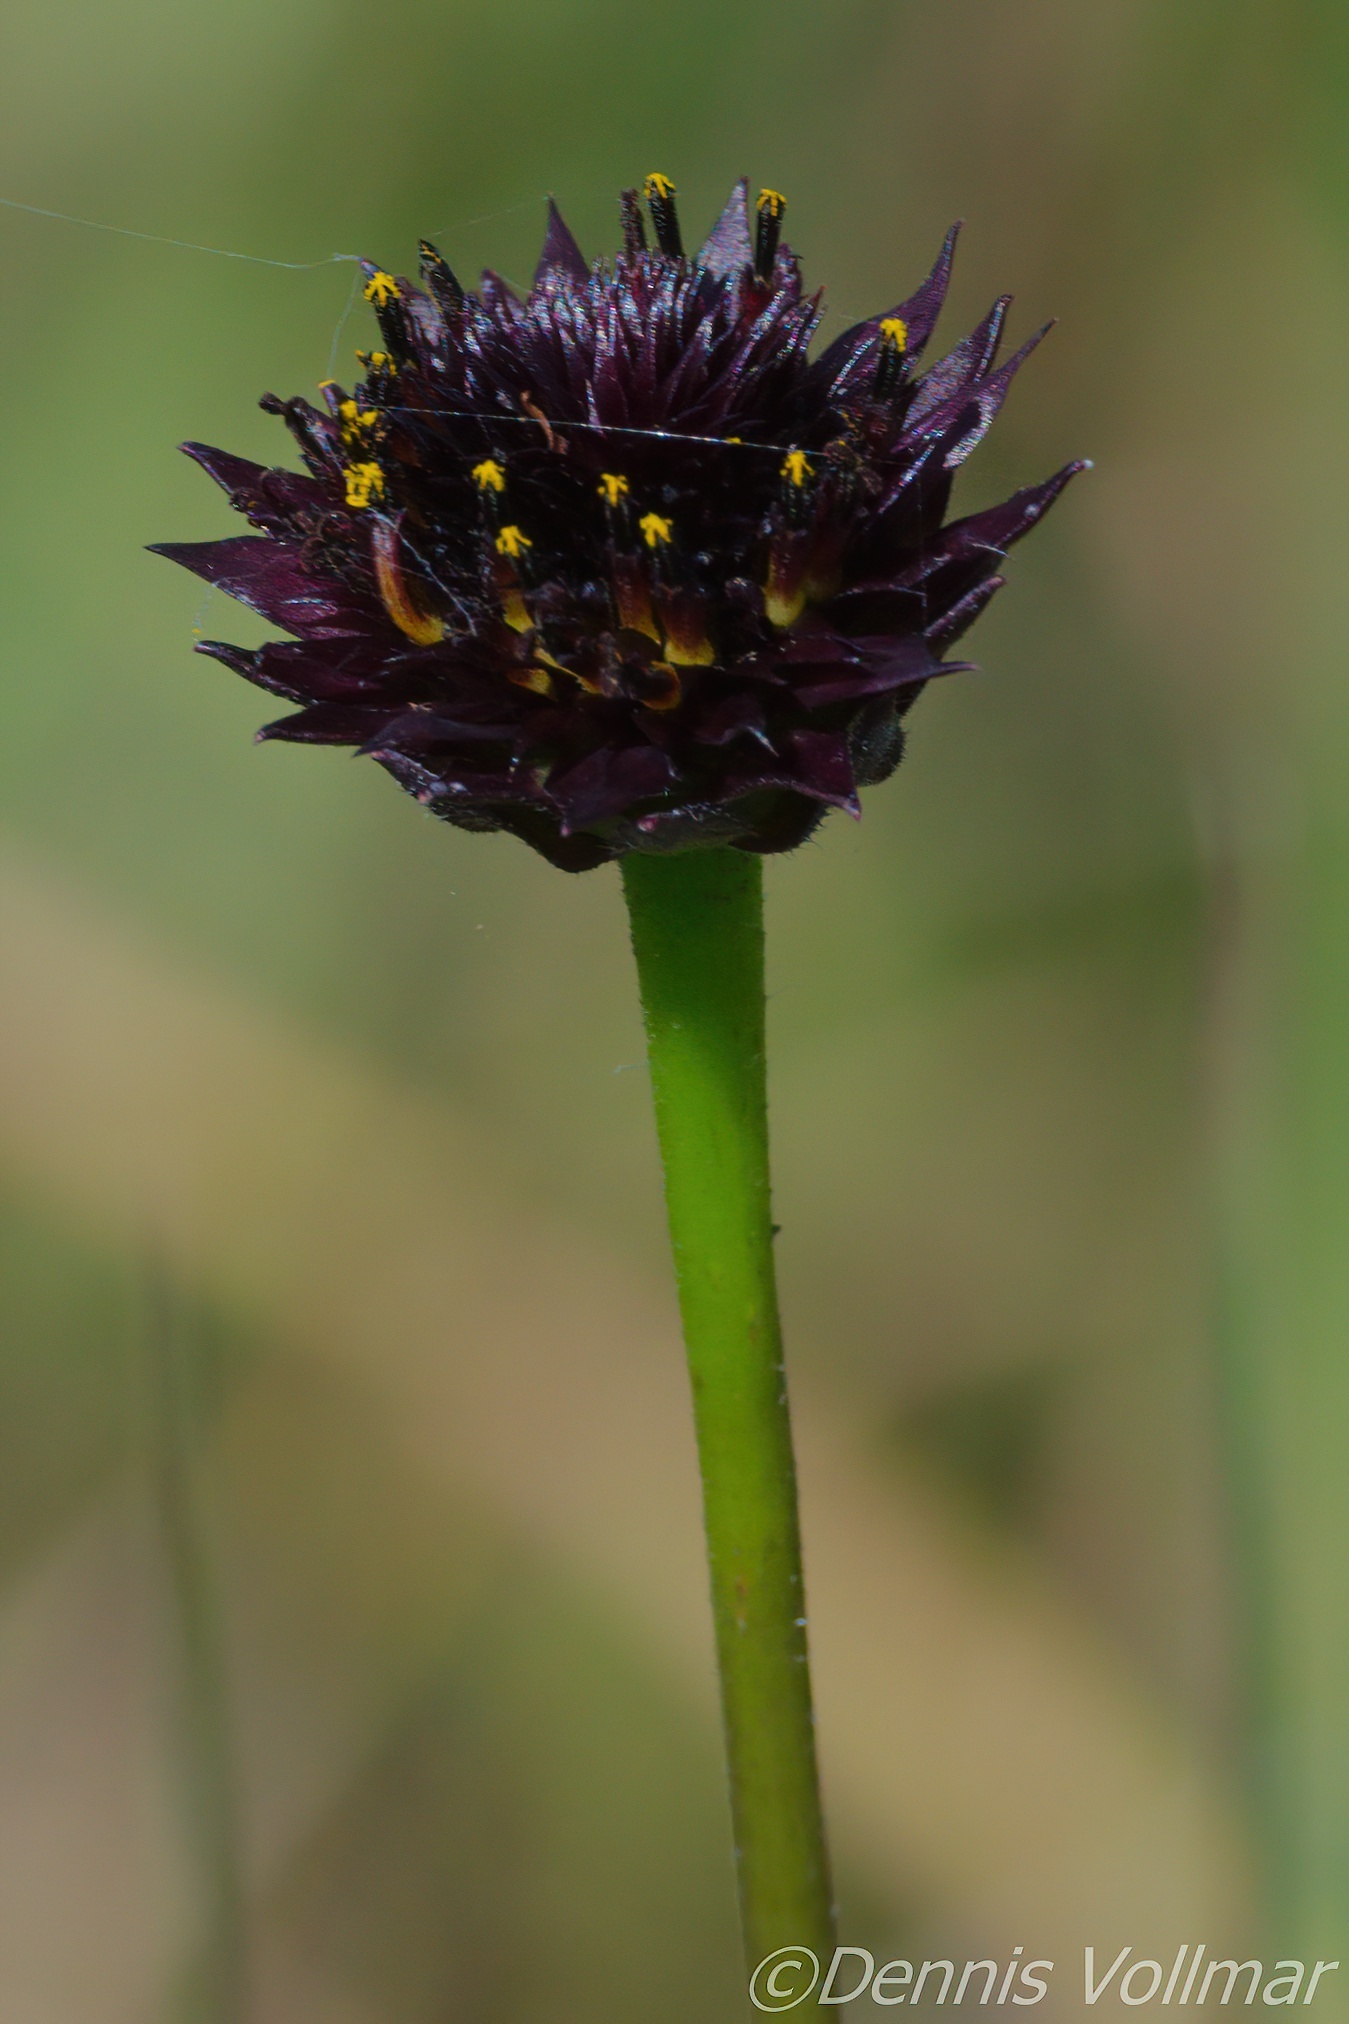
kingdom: Plantae
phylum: Tracheophyta
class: Magnoliopsida
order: Asterales
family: Asteraceae
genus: Helianthus
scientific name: Helianthus radula
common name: Pineland sunflower
